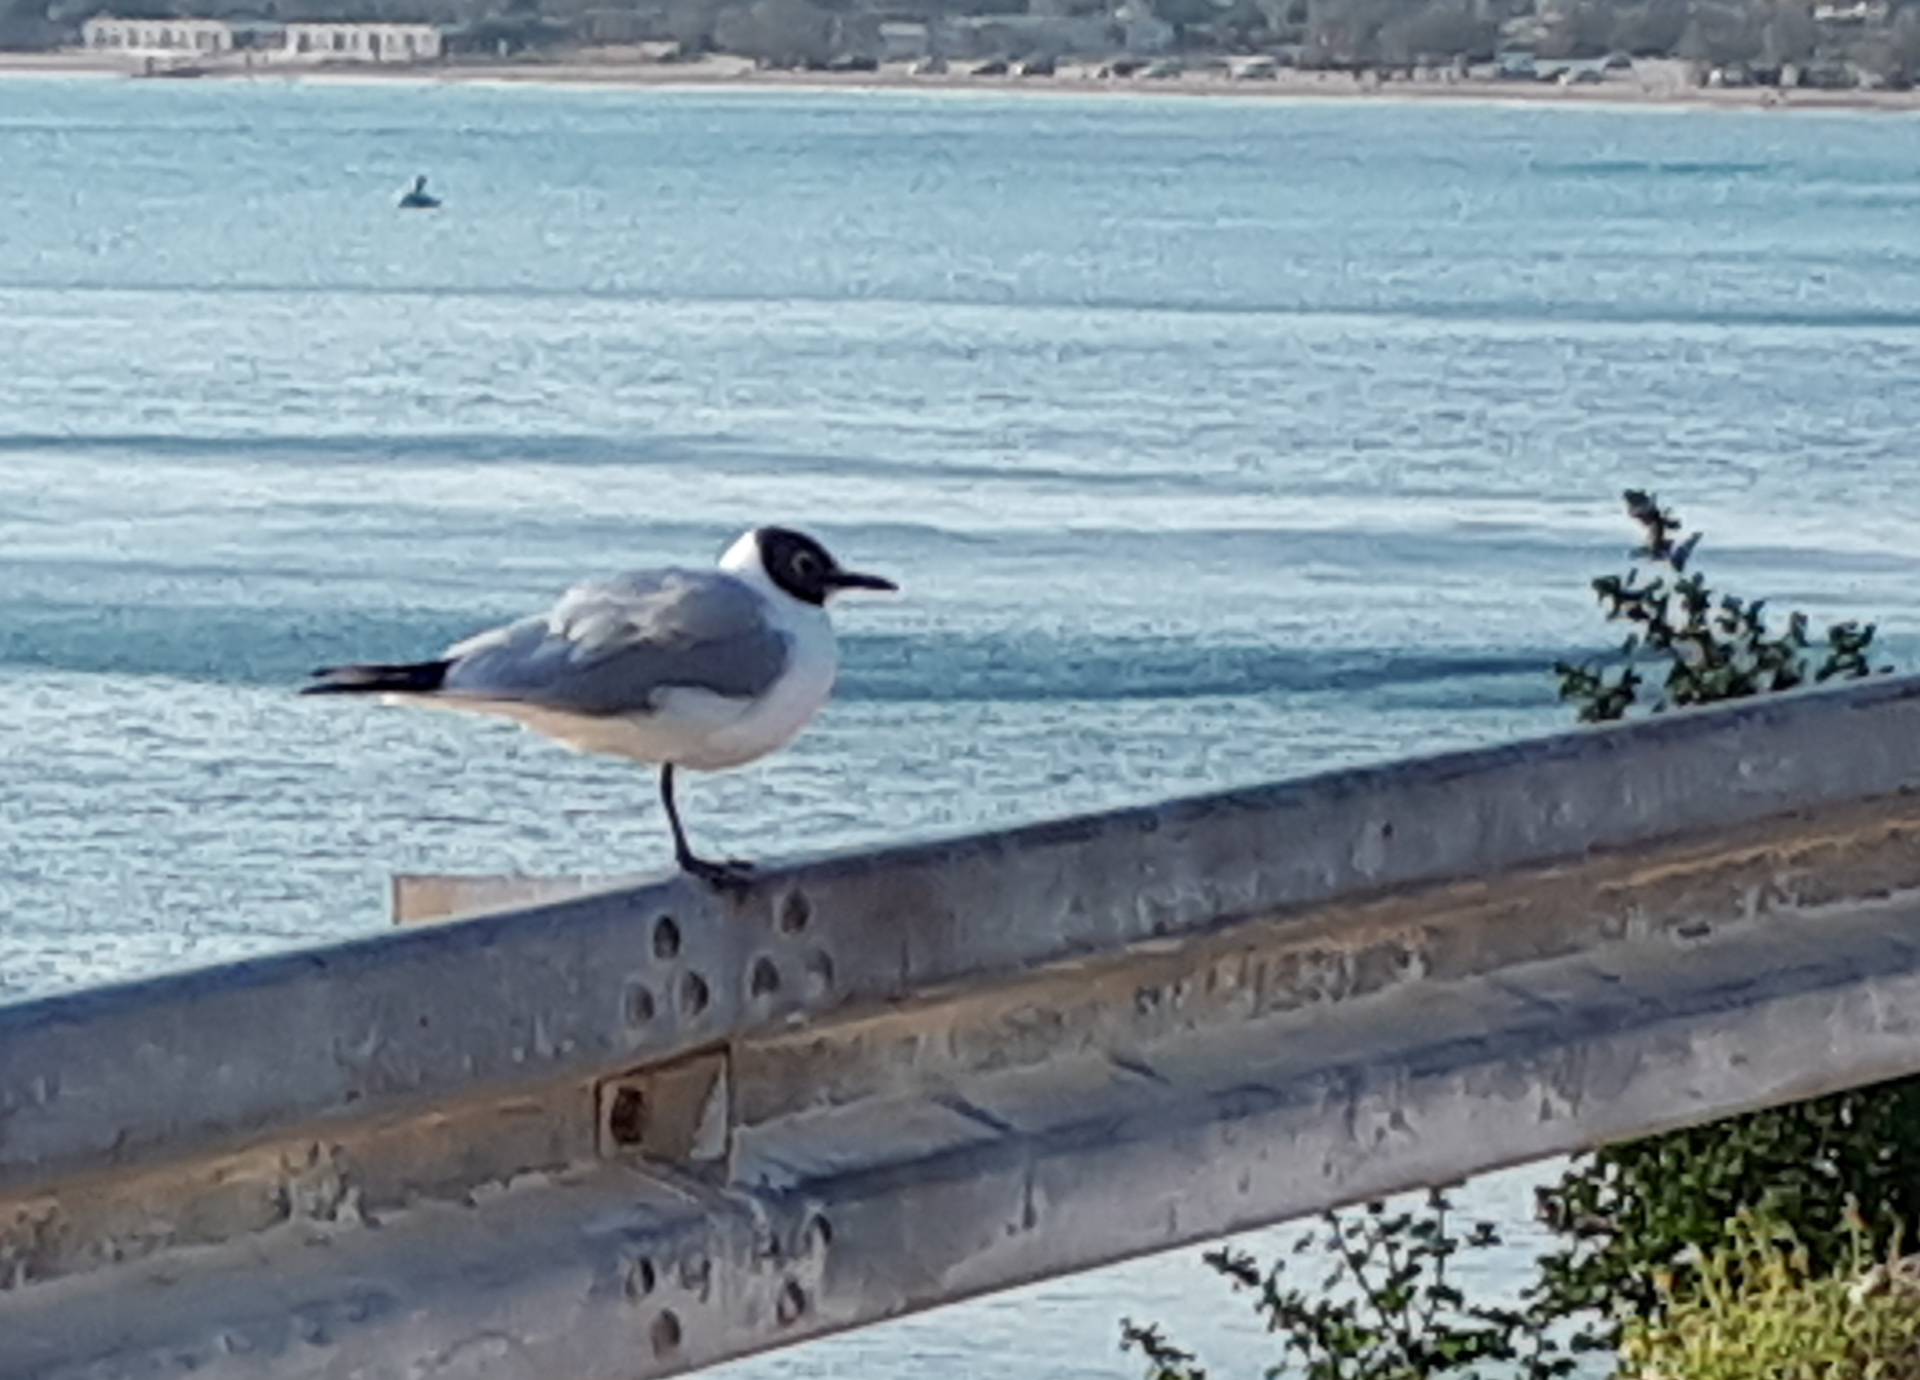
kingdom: Animalia
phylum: Chordata
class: Aves
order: Charadriiformes
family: Laridae
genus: Chroicocephalus
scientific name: Chroicocephalus ridibundus
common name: Black-headed gull
